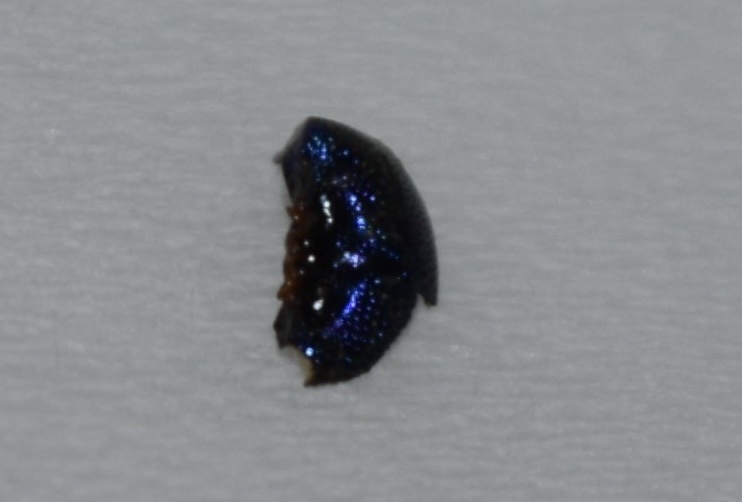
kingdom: Animalia
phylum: Arthropoda
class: Insecta
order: Coleoptera
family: Chrysomelidae
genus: Hemisphaerota
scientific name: Hemisphaerota cyanea
